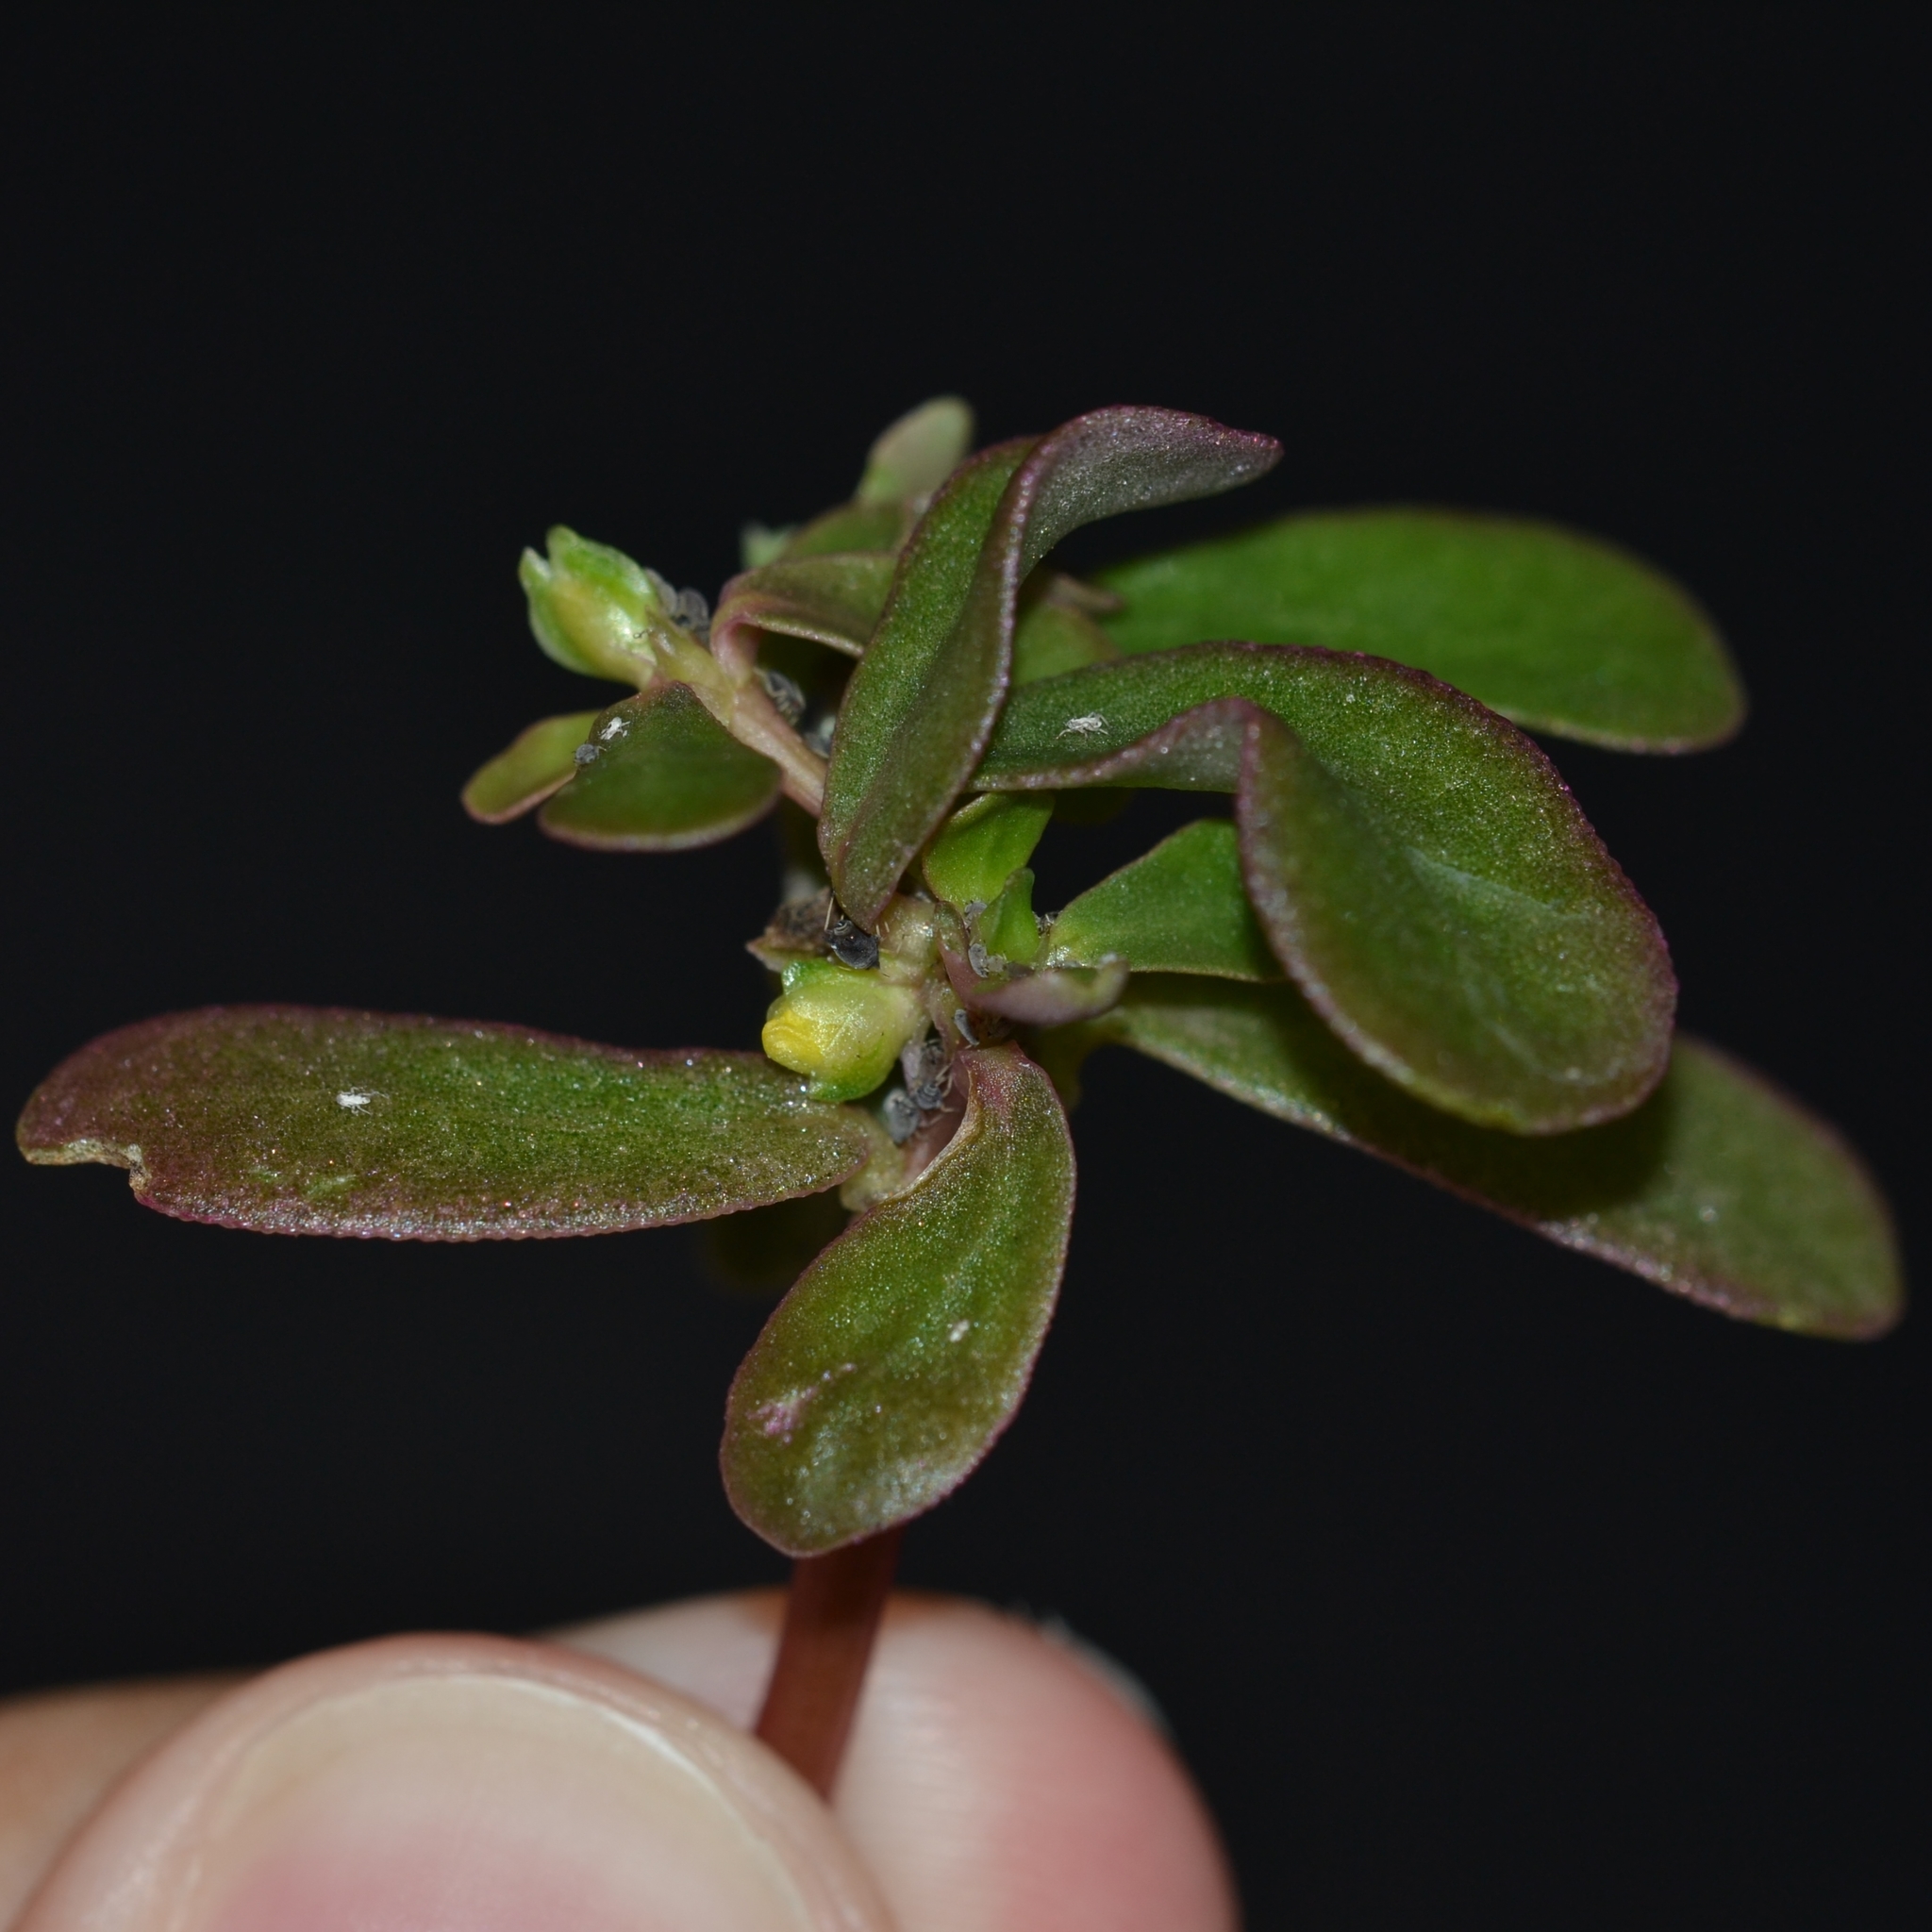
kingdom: Plantae
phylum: Tracheophyta
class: Magnoliopsida
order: Caryophyllales
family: Portulacaceae
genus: Portulaca
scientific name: Portulaca oleracea
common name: Common purslane
